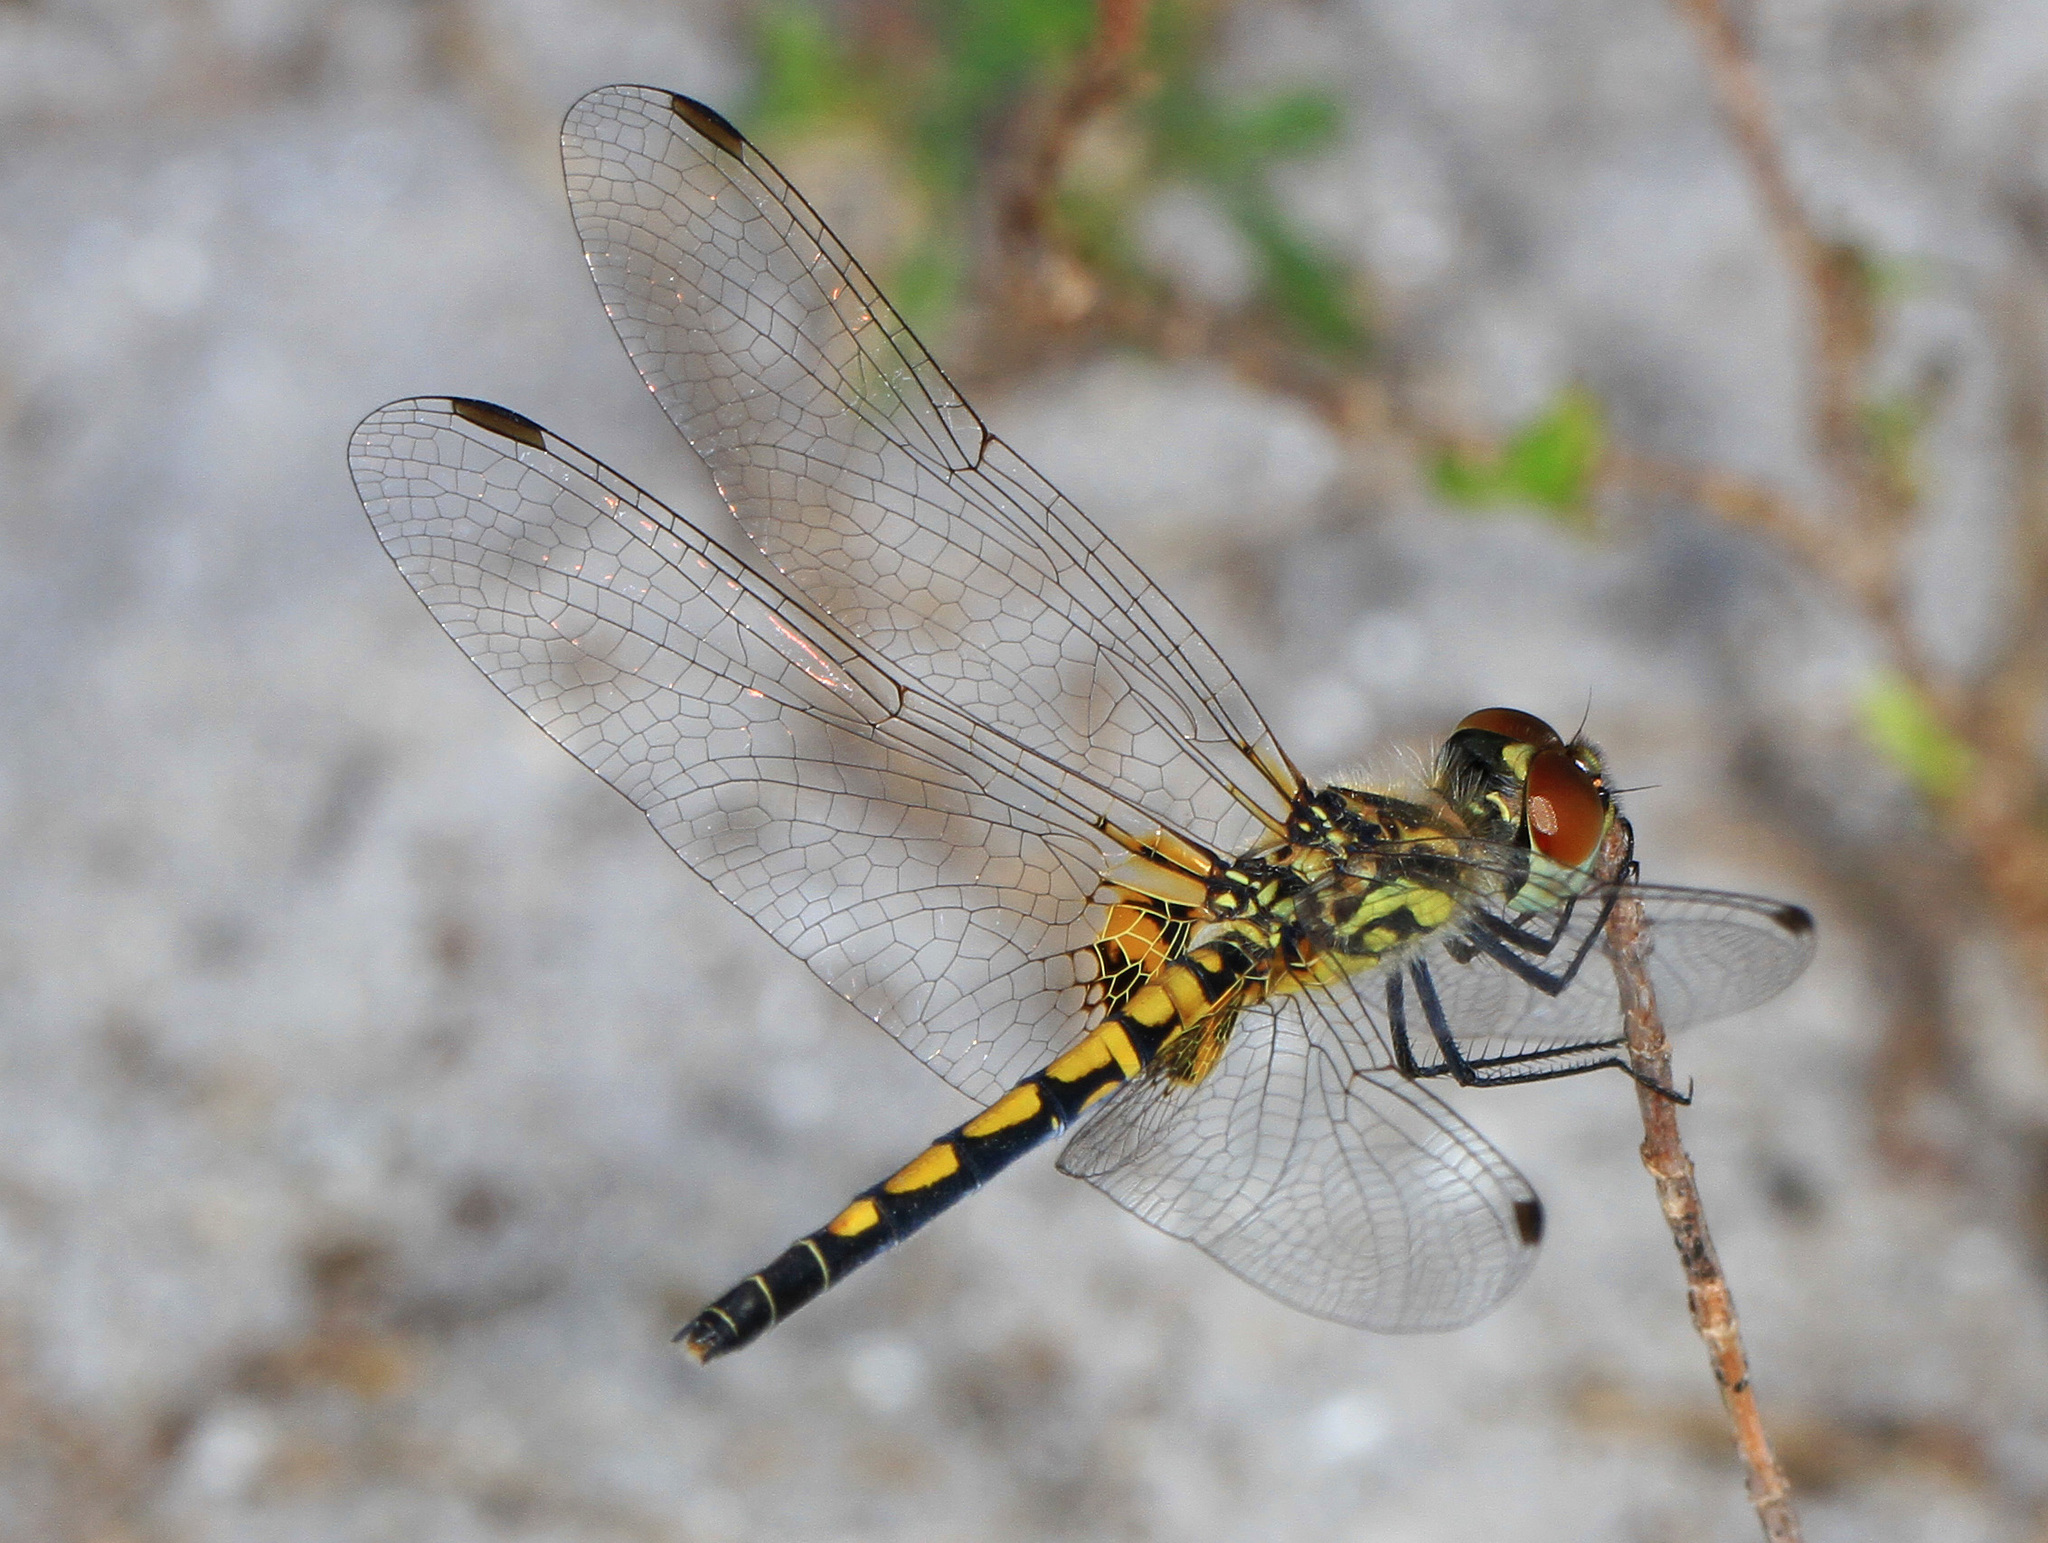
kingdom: Animalia
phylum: Arthropoda
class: Insecta
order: Odonata
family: Libellulidae
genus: Celithemis
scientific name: Celithemis ornata
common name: Ornate pennant
